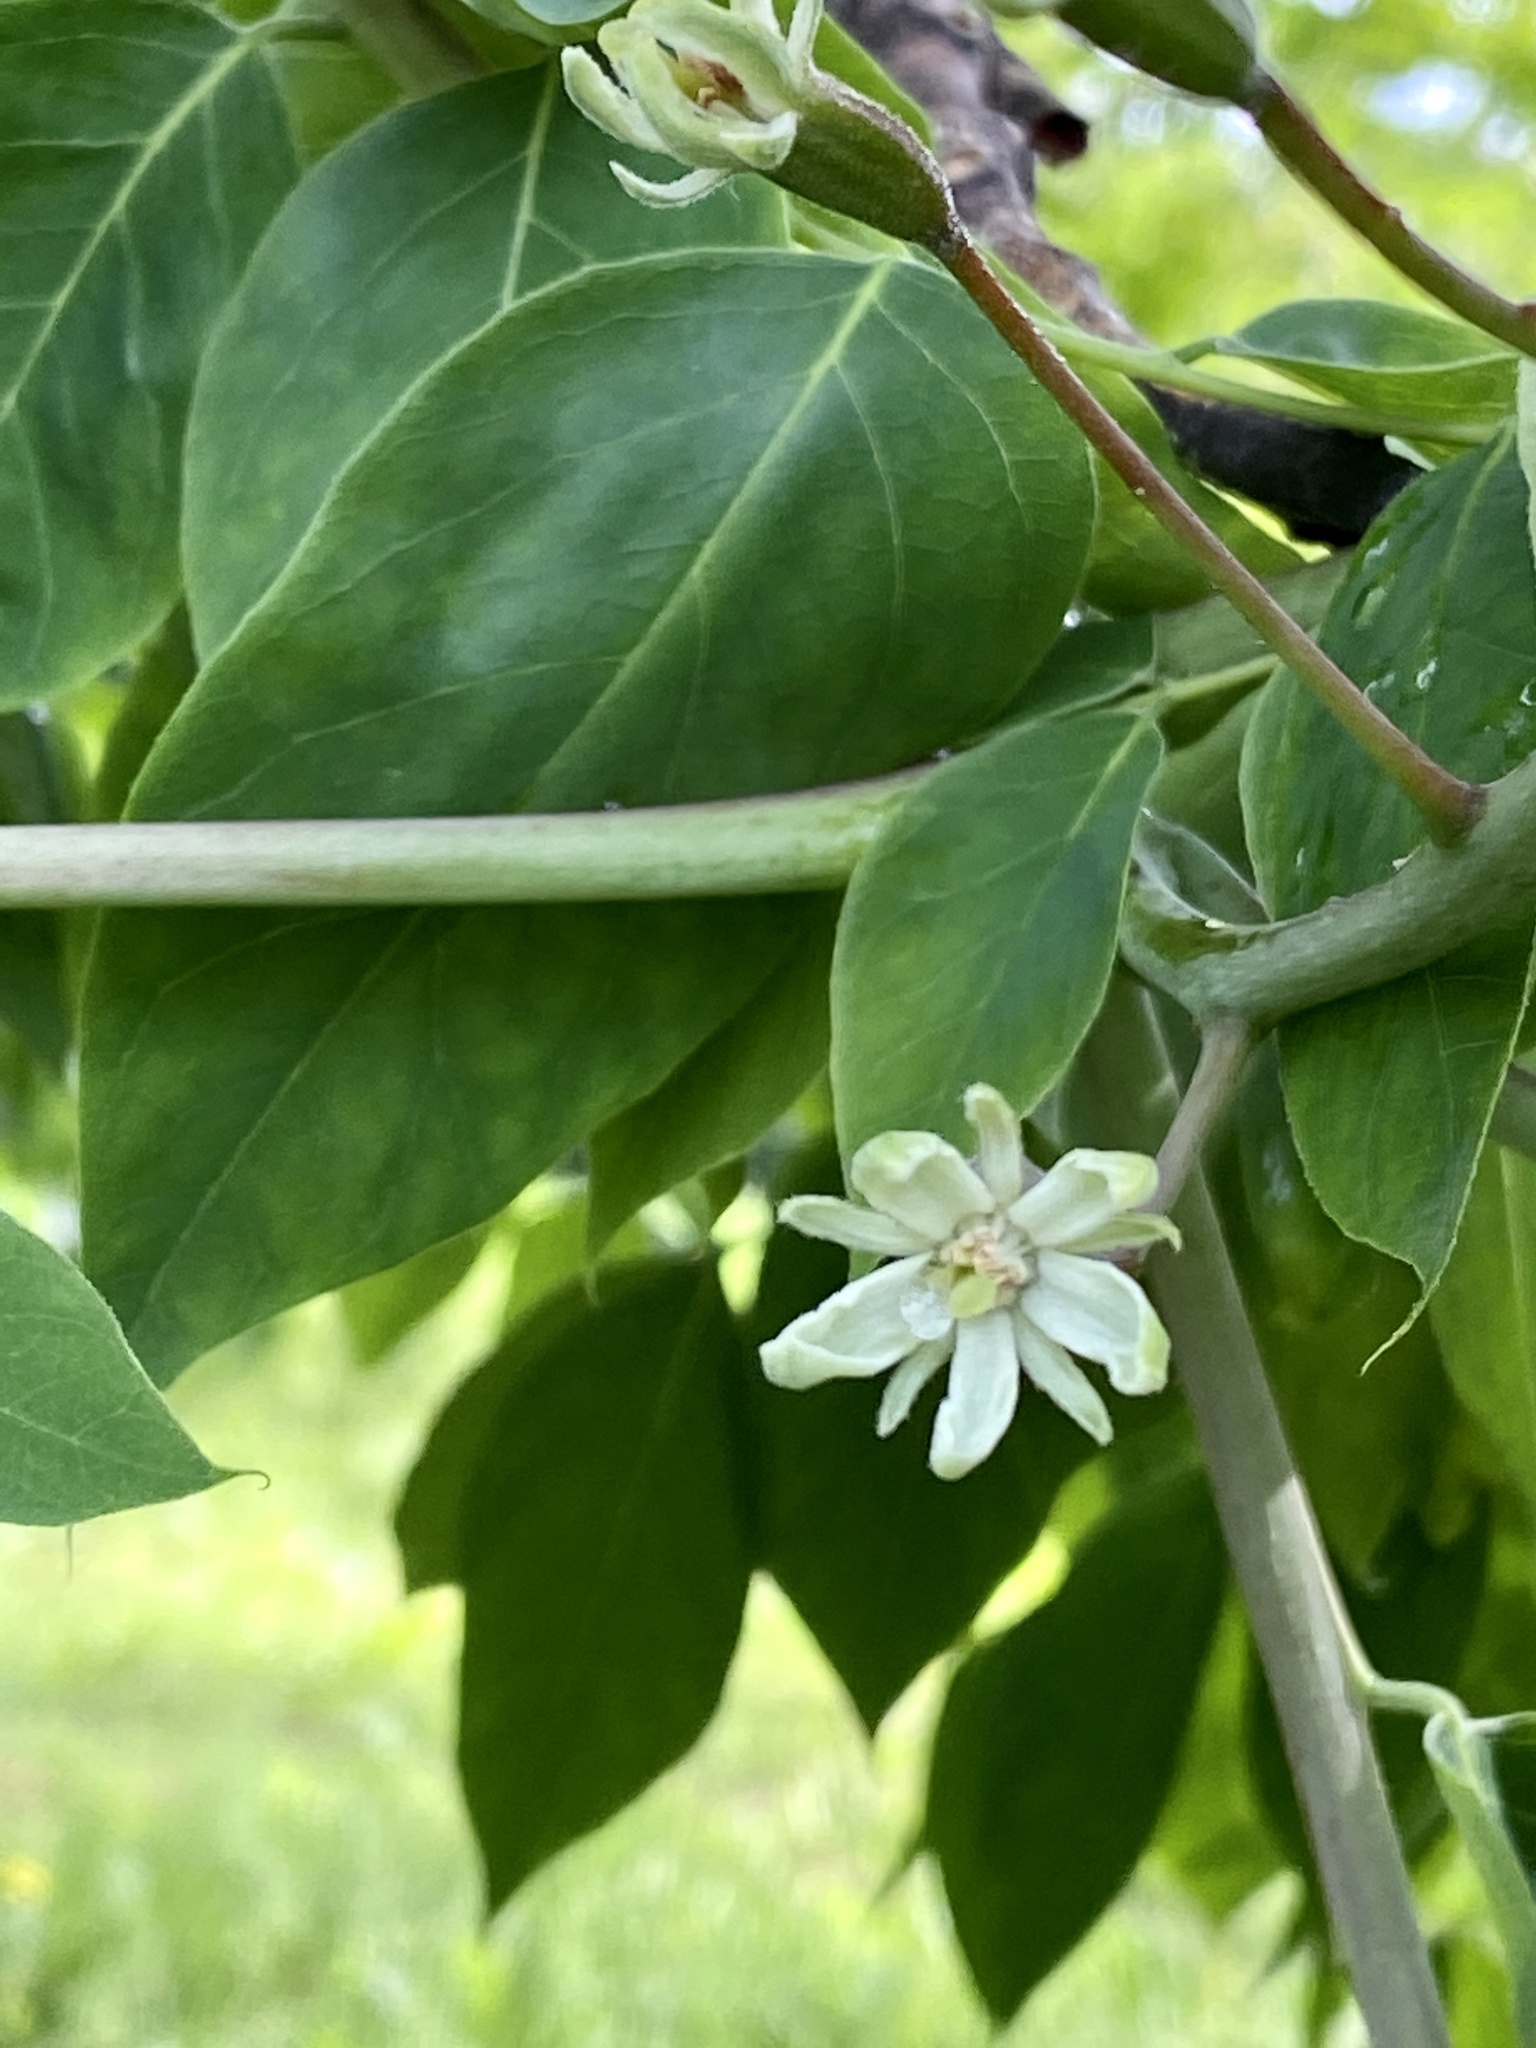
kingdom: Plantae
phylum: Tracheophyta
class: Magnoliopsida
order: Fabales
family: Fabaceae
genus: Gymnocladus
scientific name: Gymnocladus dioicus
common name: Kentucky coffee-tree
